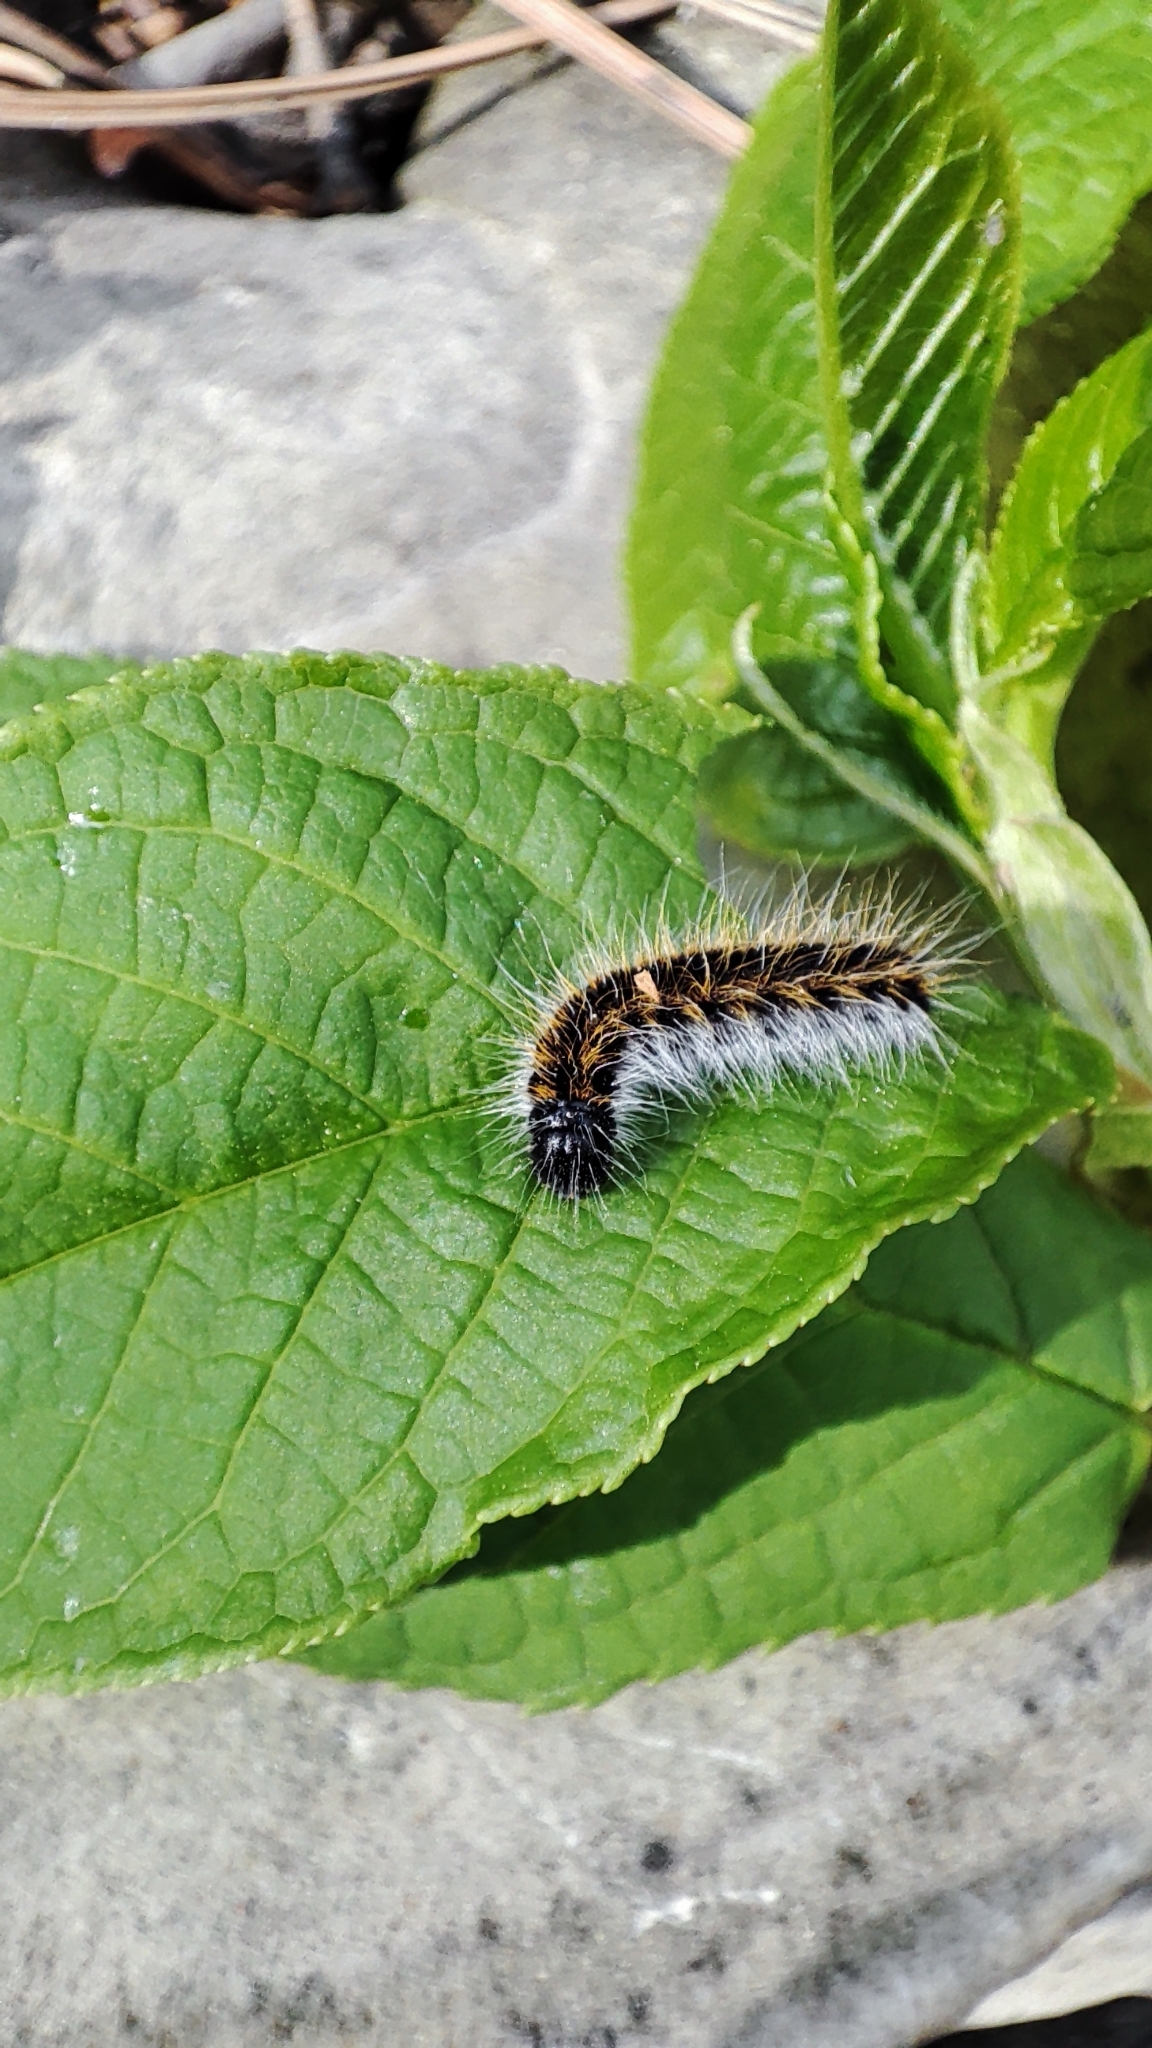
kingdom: Animalia
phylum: Arthropoda
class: Insecta
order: Lepidoptera
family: Pieridae
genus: Aporia
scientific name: Aporia crataegi
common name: Black-veined white
